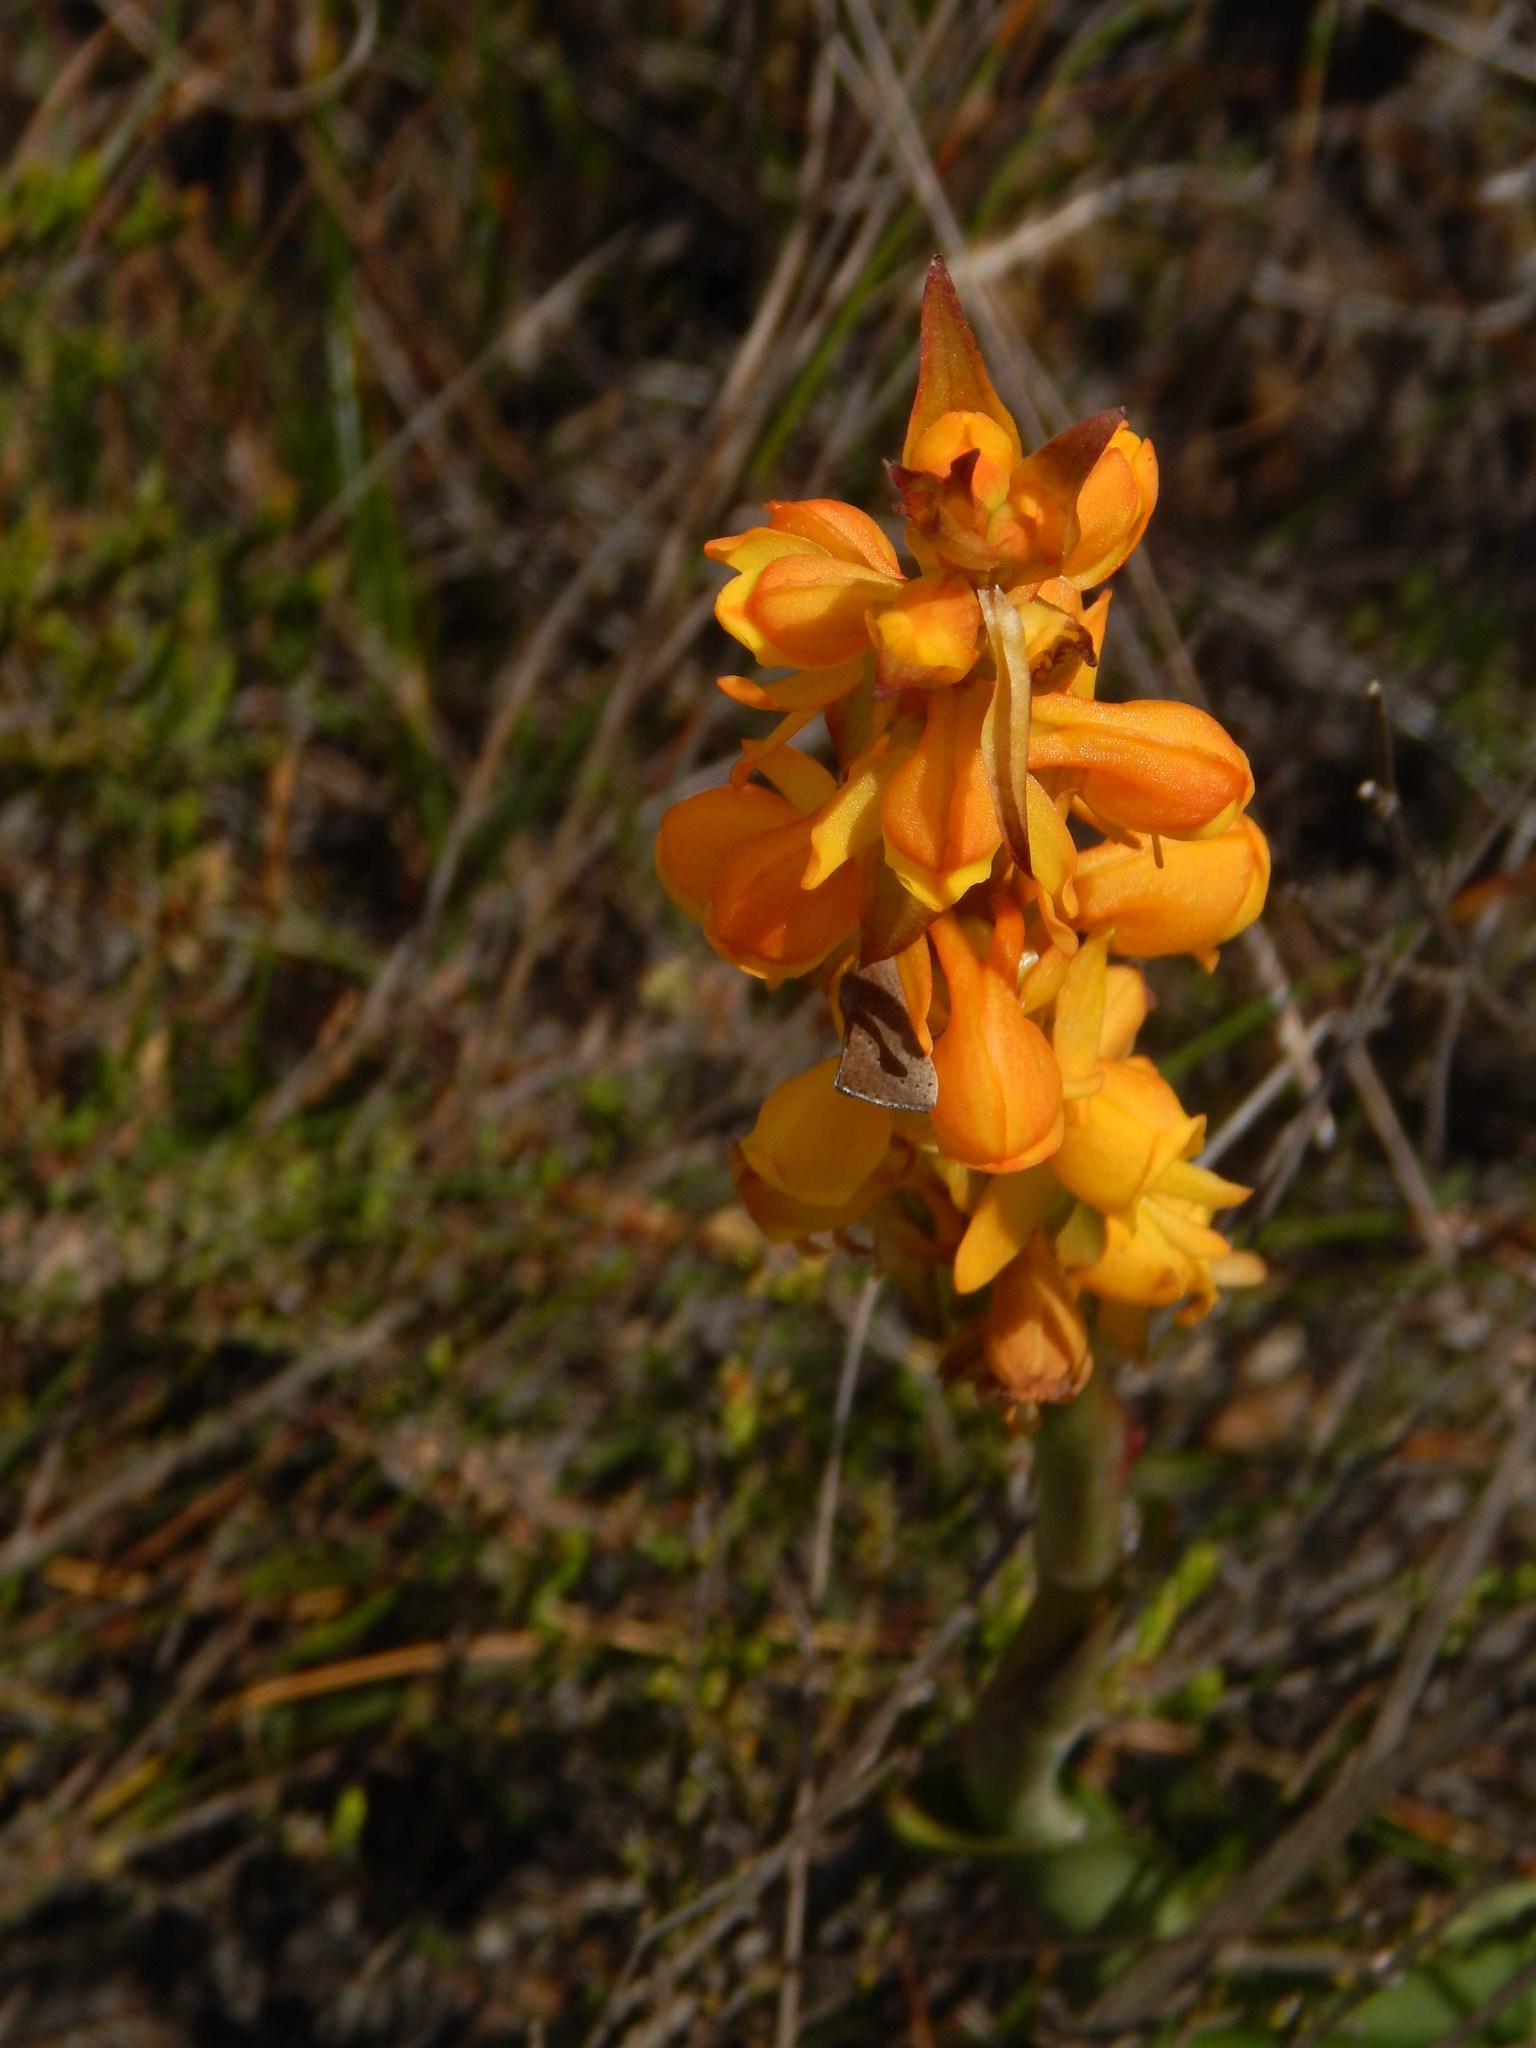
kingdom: Plantae
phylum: Tracheophyta
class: Liliopsida
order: Asparagales
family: Orchidaceae
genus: Satyrium
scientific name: Satyrium coriifolium
